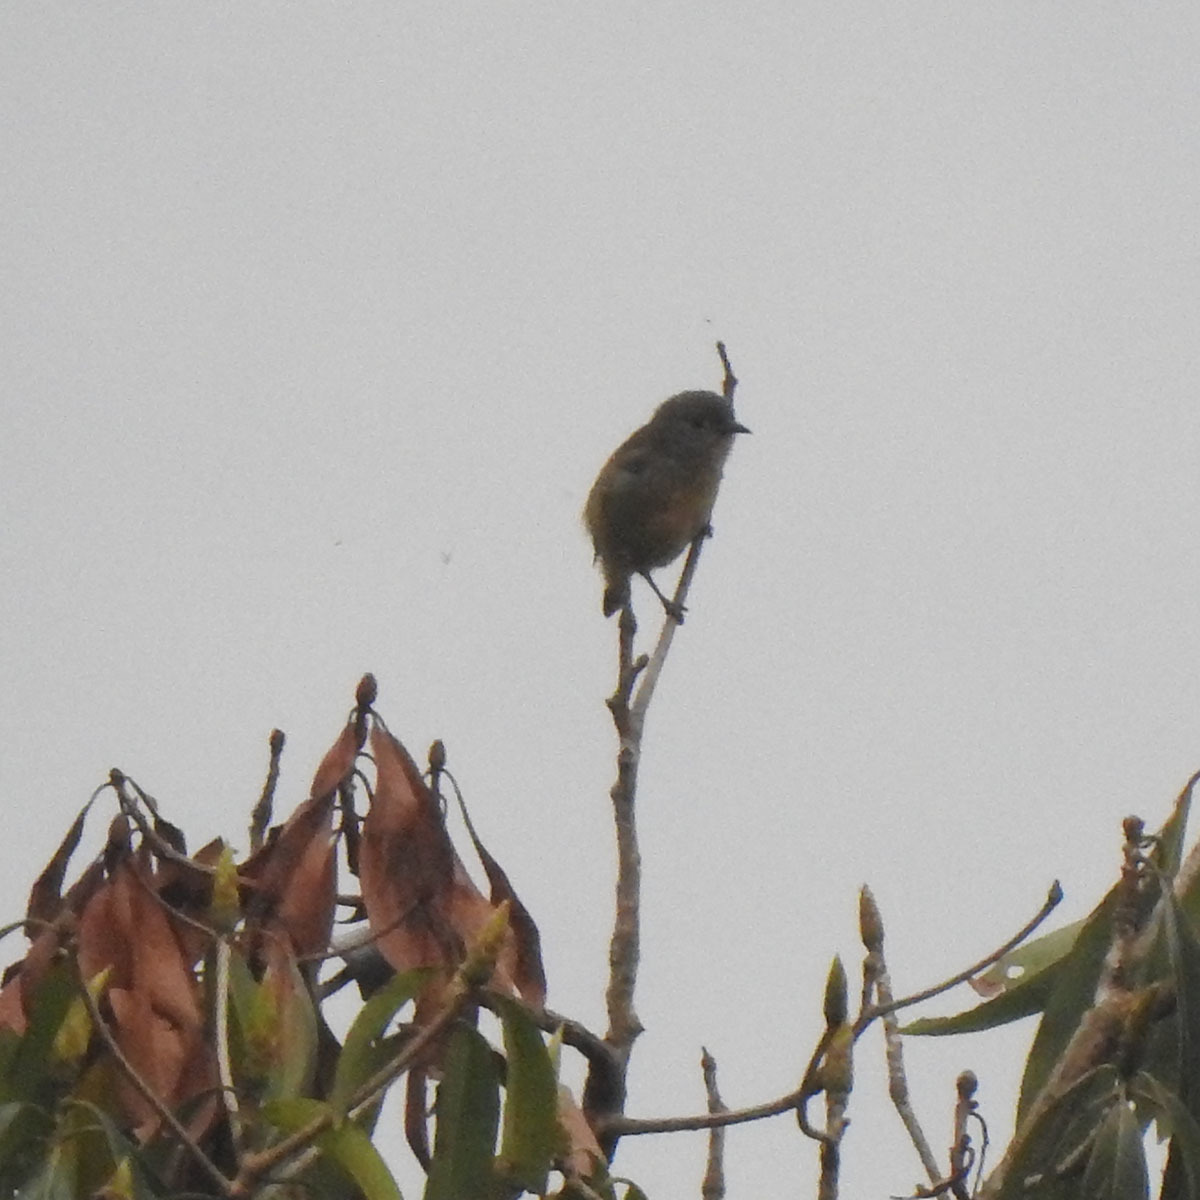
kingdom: Animalia
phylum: Chordata
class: Aves
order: Passeriformes
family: Dicaeidae
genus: Dicaeum
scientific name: Dicaeum ignipectus
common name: Fire-breasted flowerpecker
